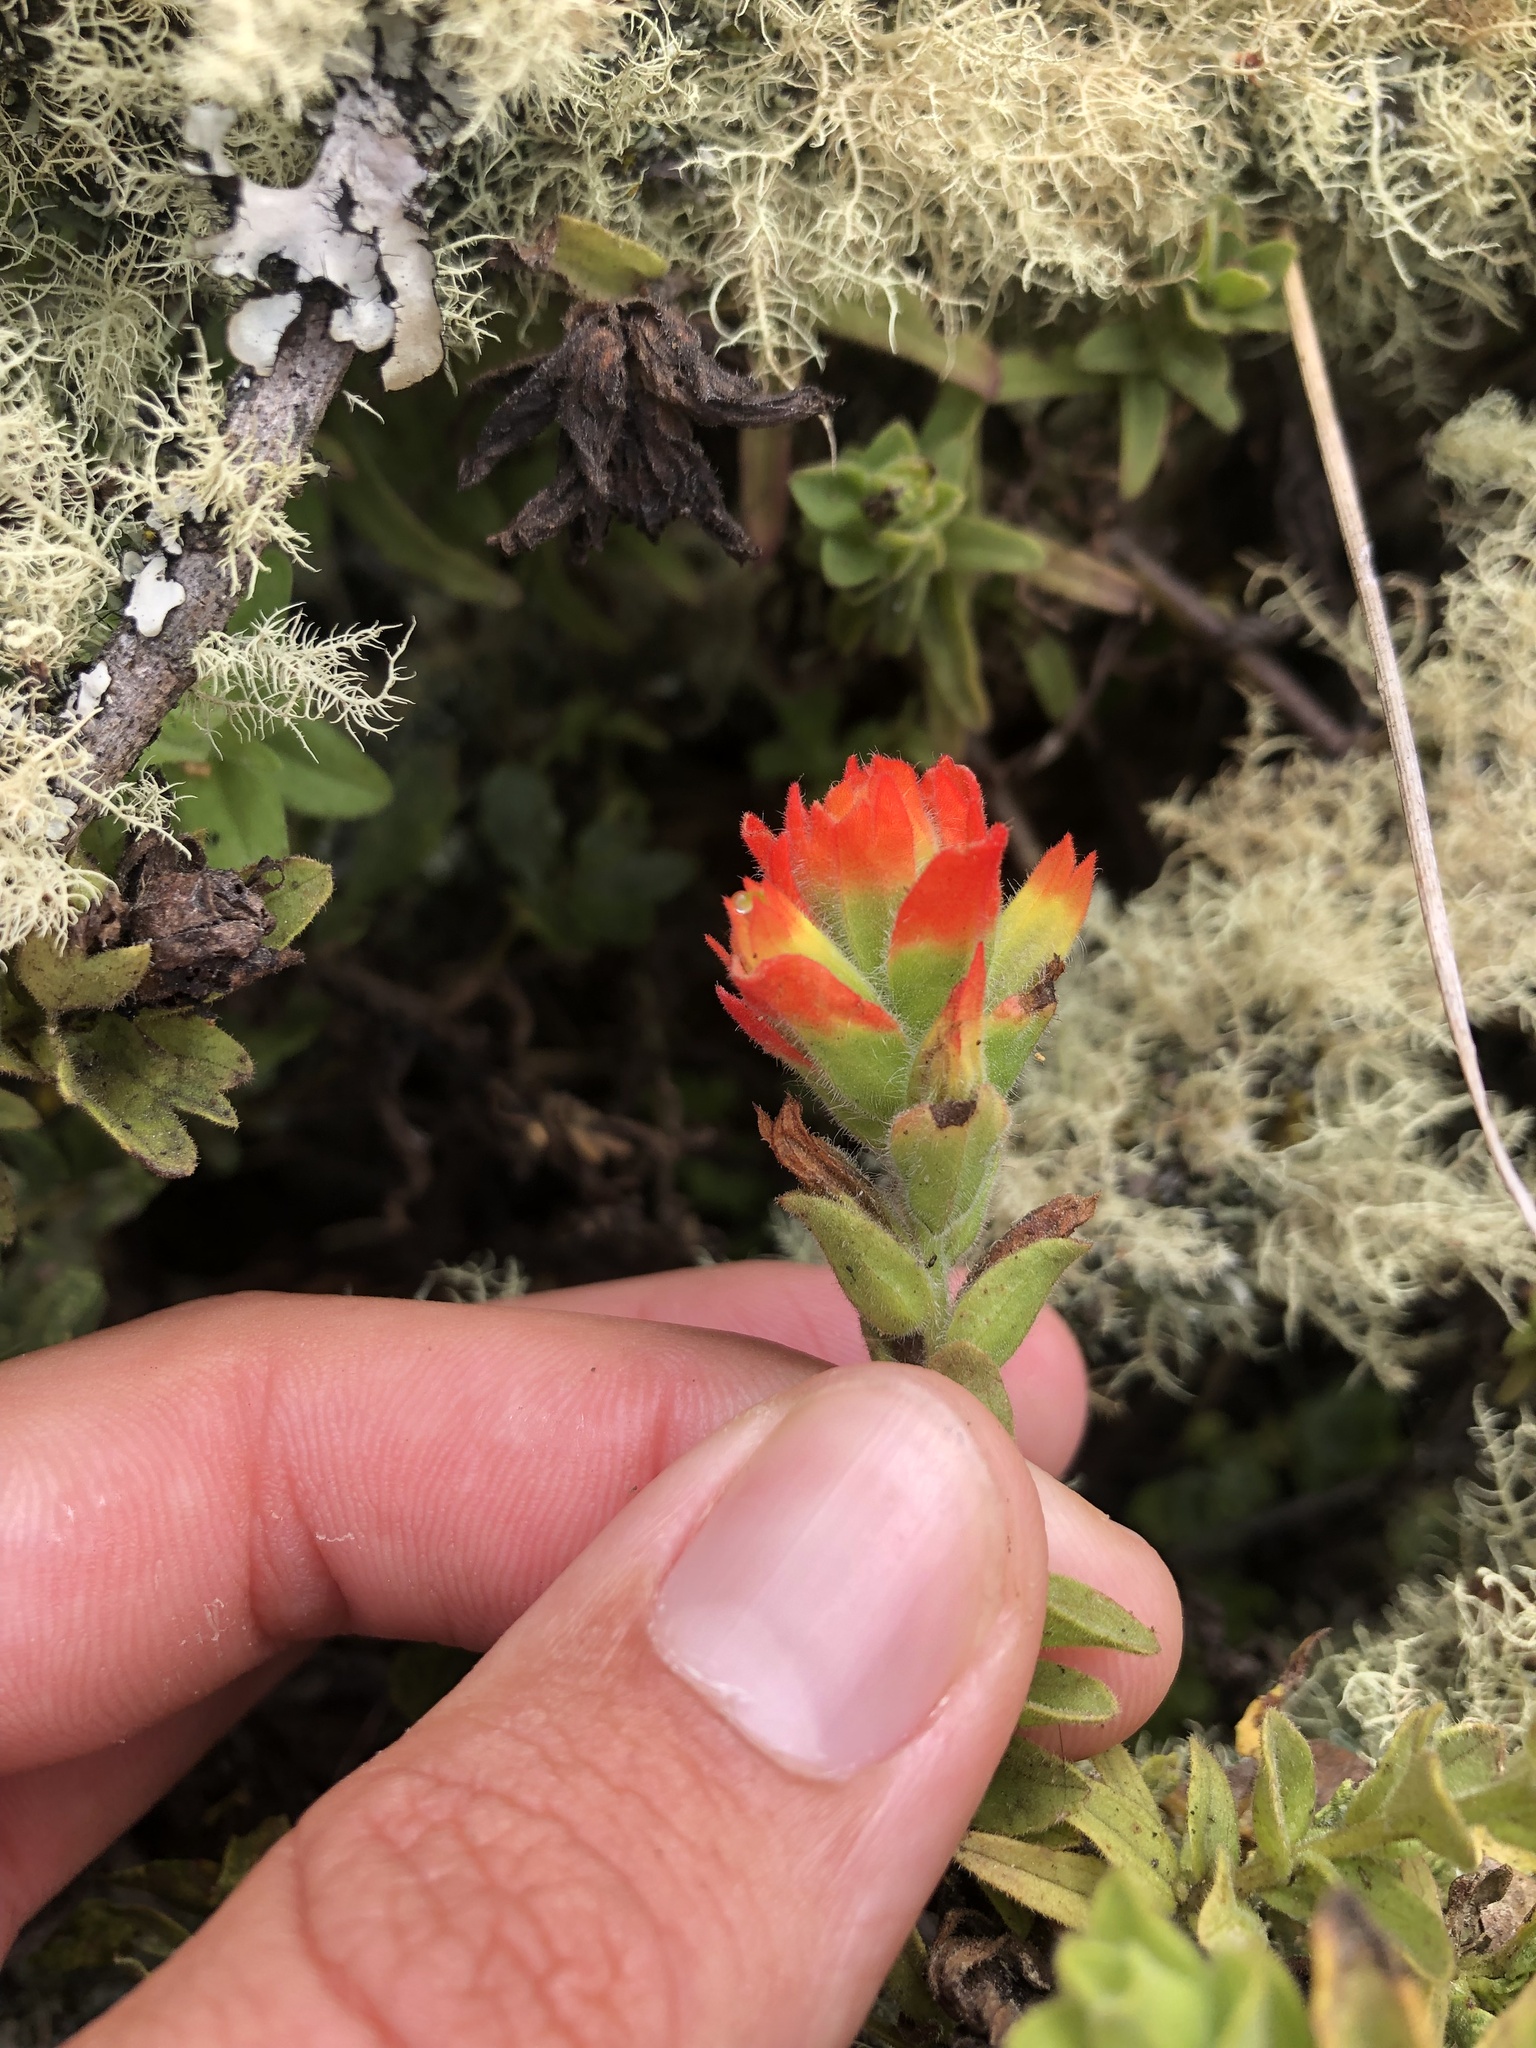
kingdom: Plantae
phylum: Tracheophyta
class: Magnoliopsida
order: Lamiales
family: Orobanchaceae
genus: Castilleja
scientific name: Castilleja wightii
